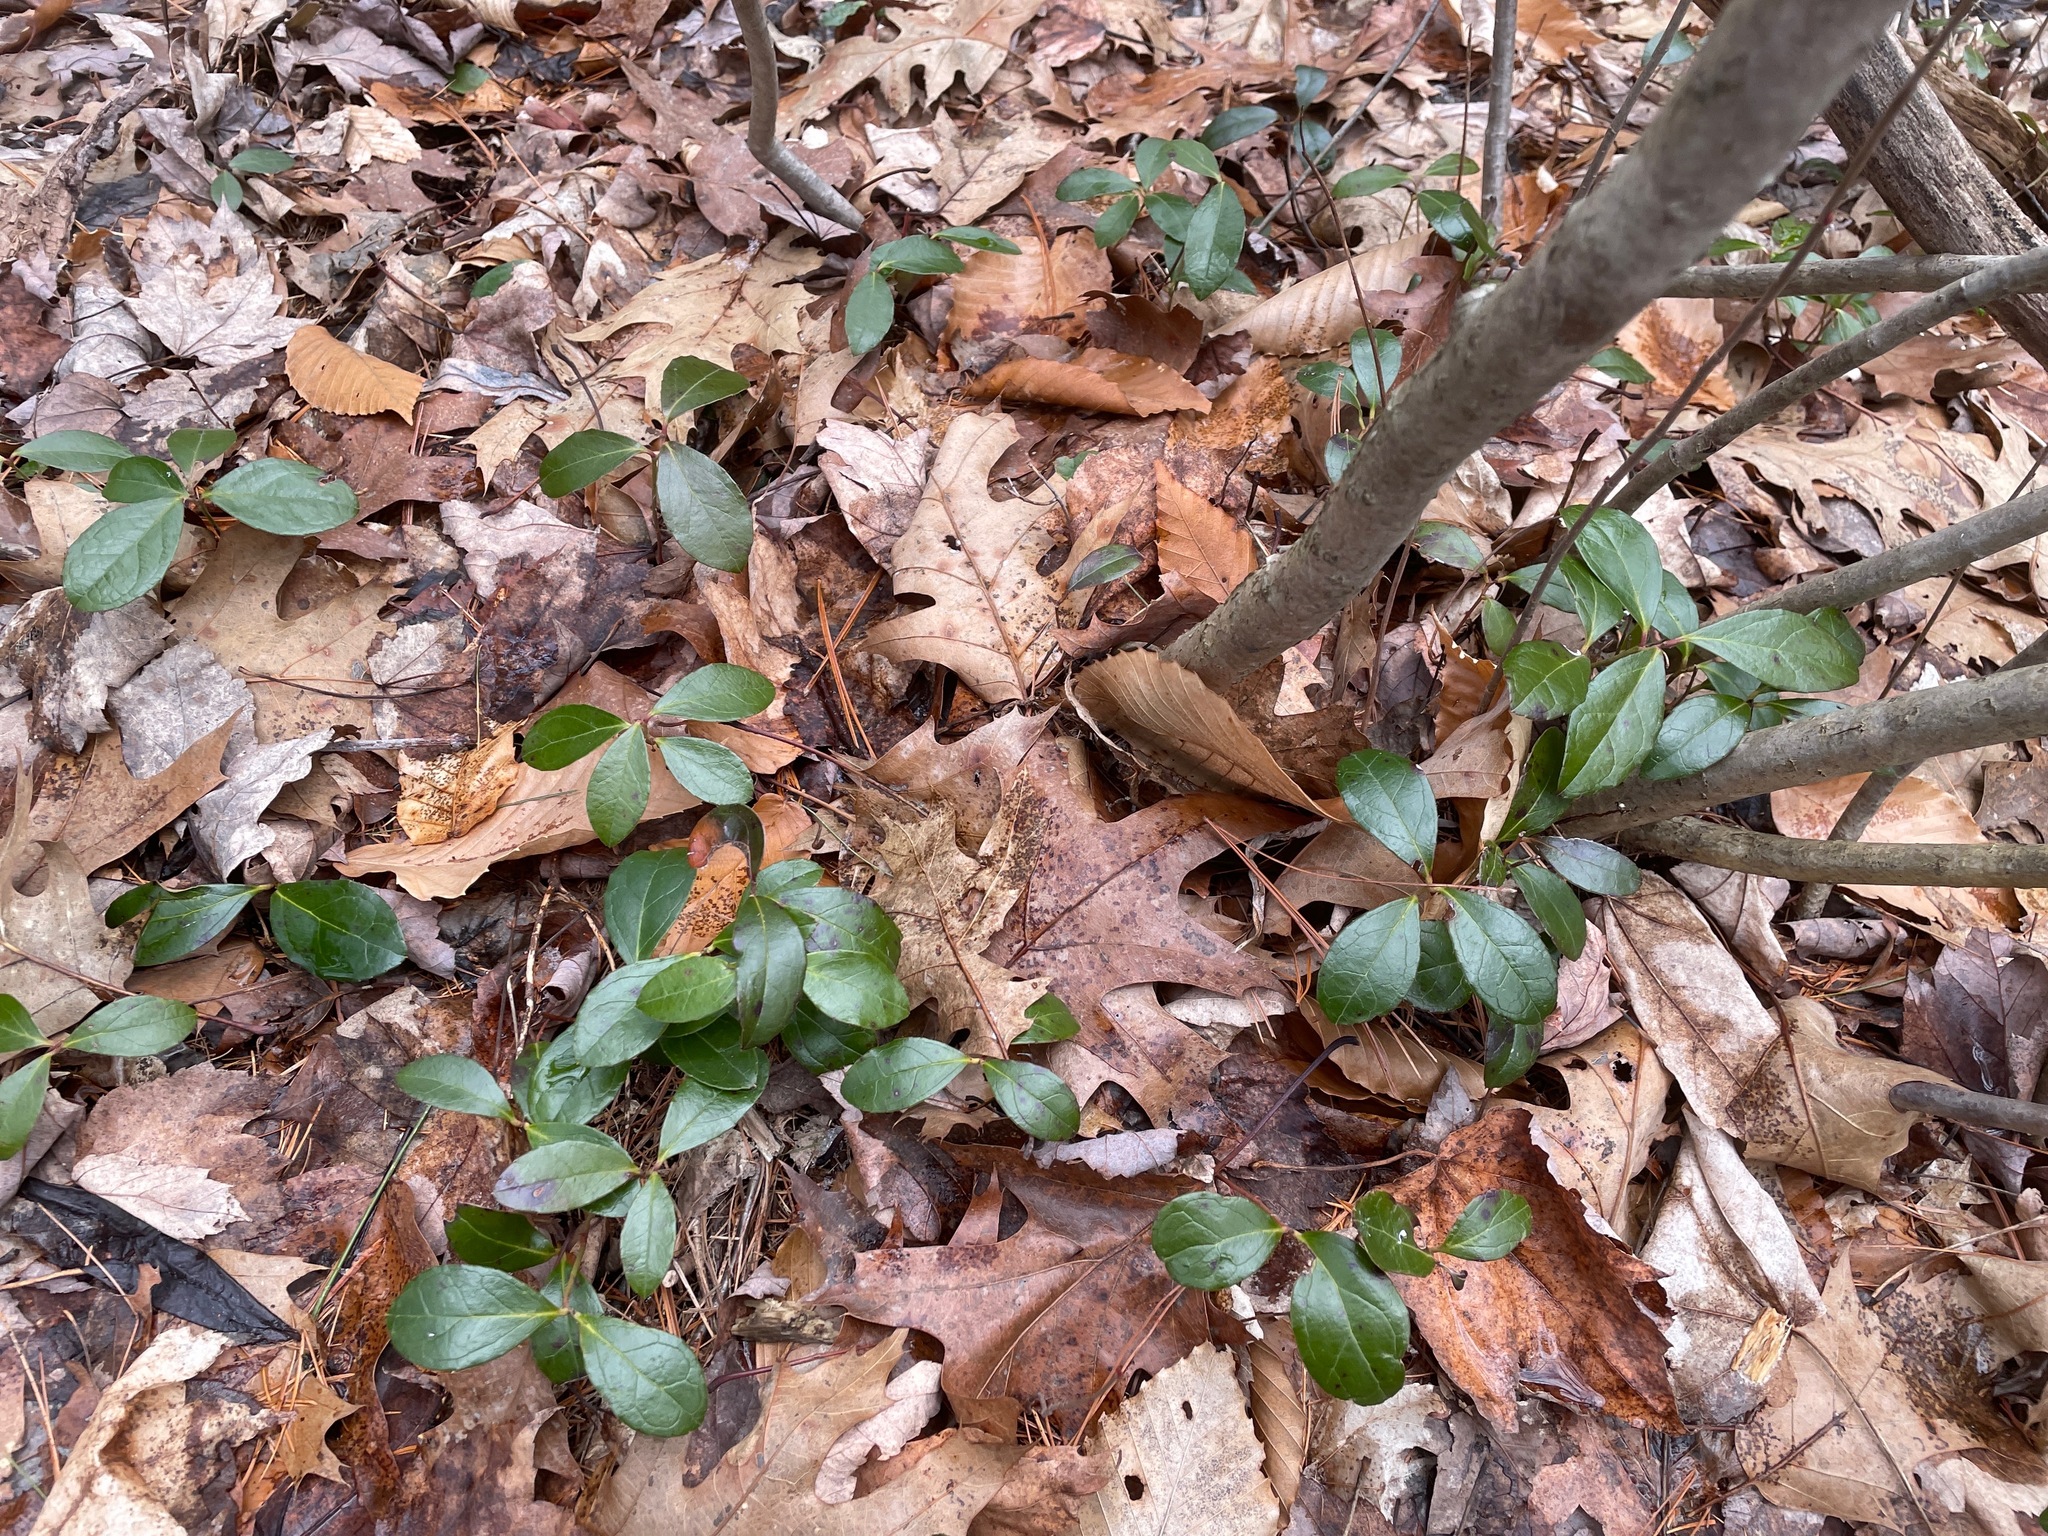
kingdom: Plantae
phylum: Tracheophyta
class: Magnoliopsida
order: Ericales
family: Ericaceae
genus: Gaultheria
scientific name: Gaultheria procumbens
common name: Checkerberry
